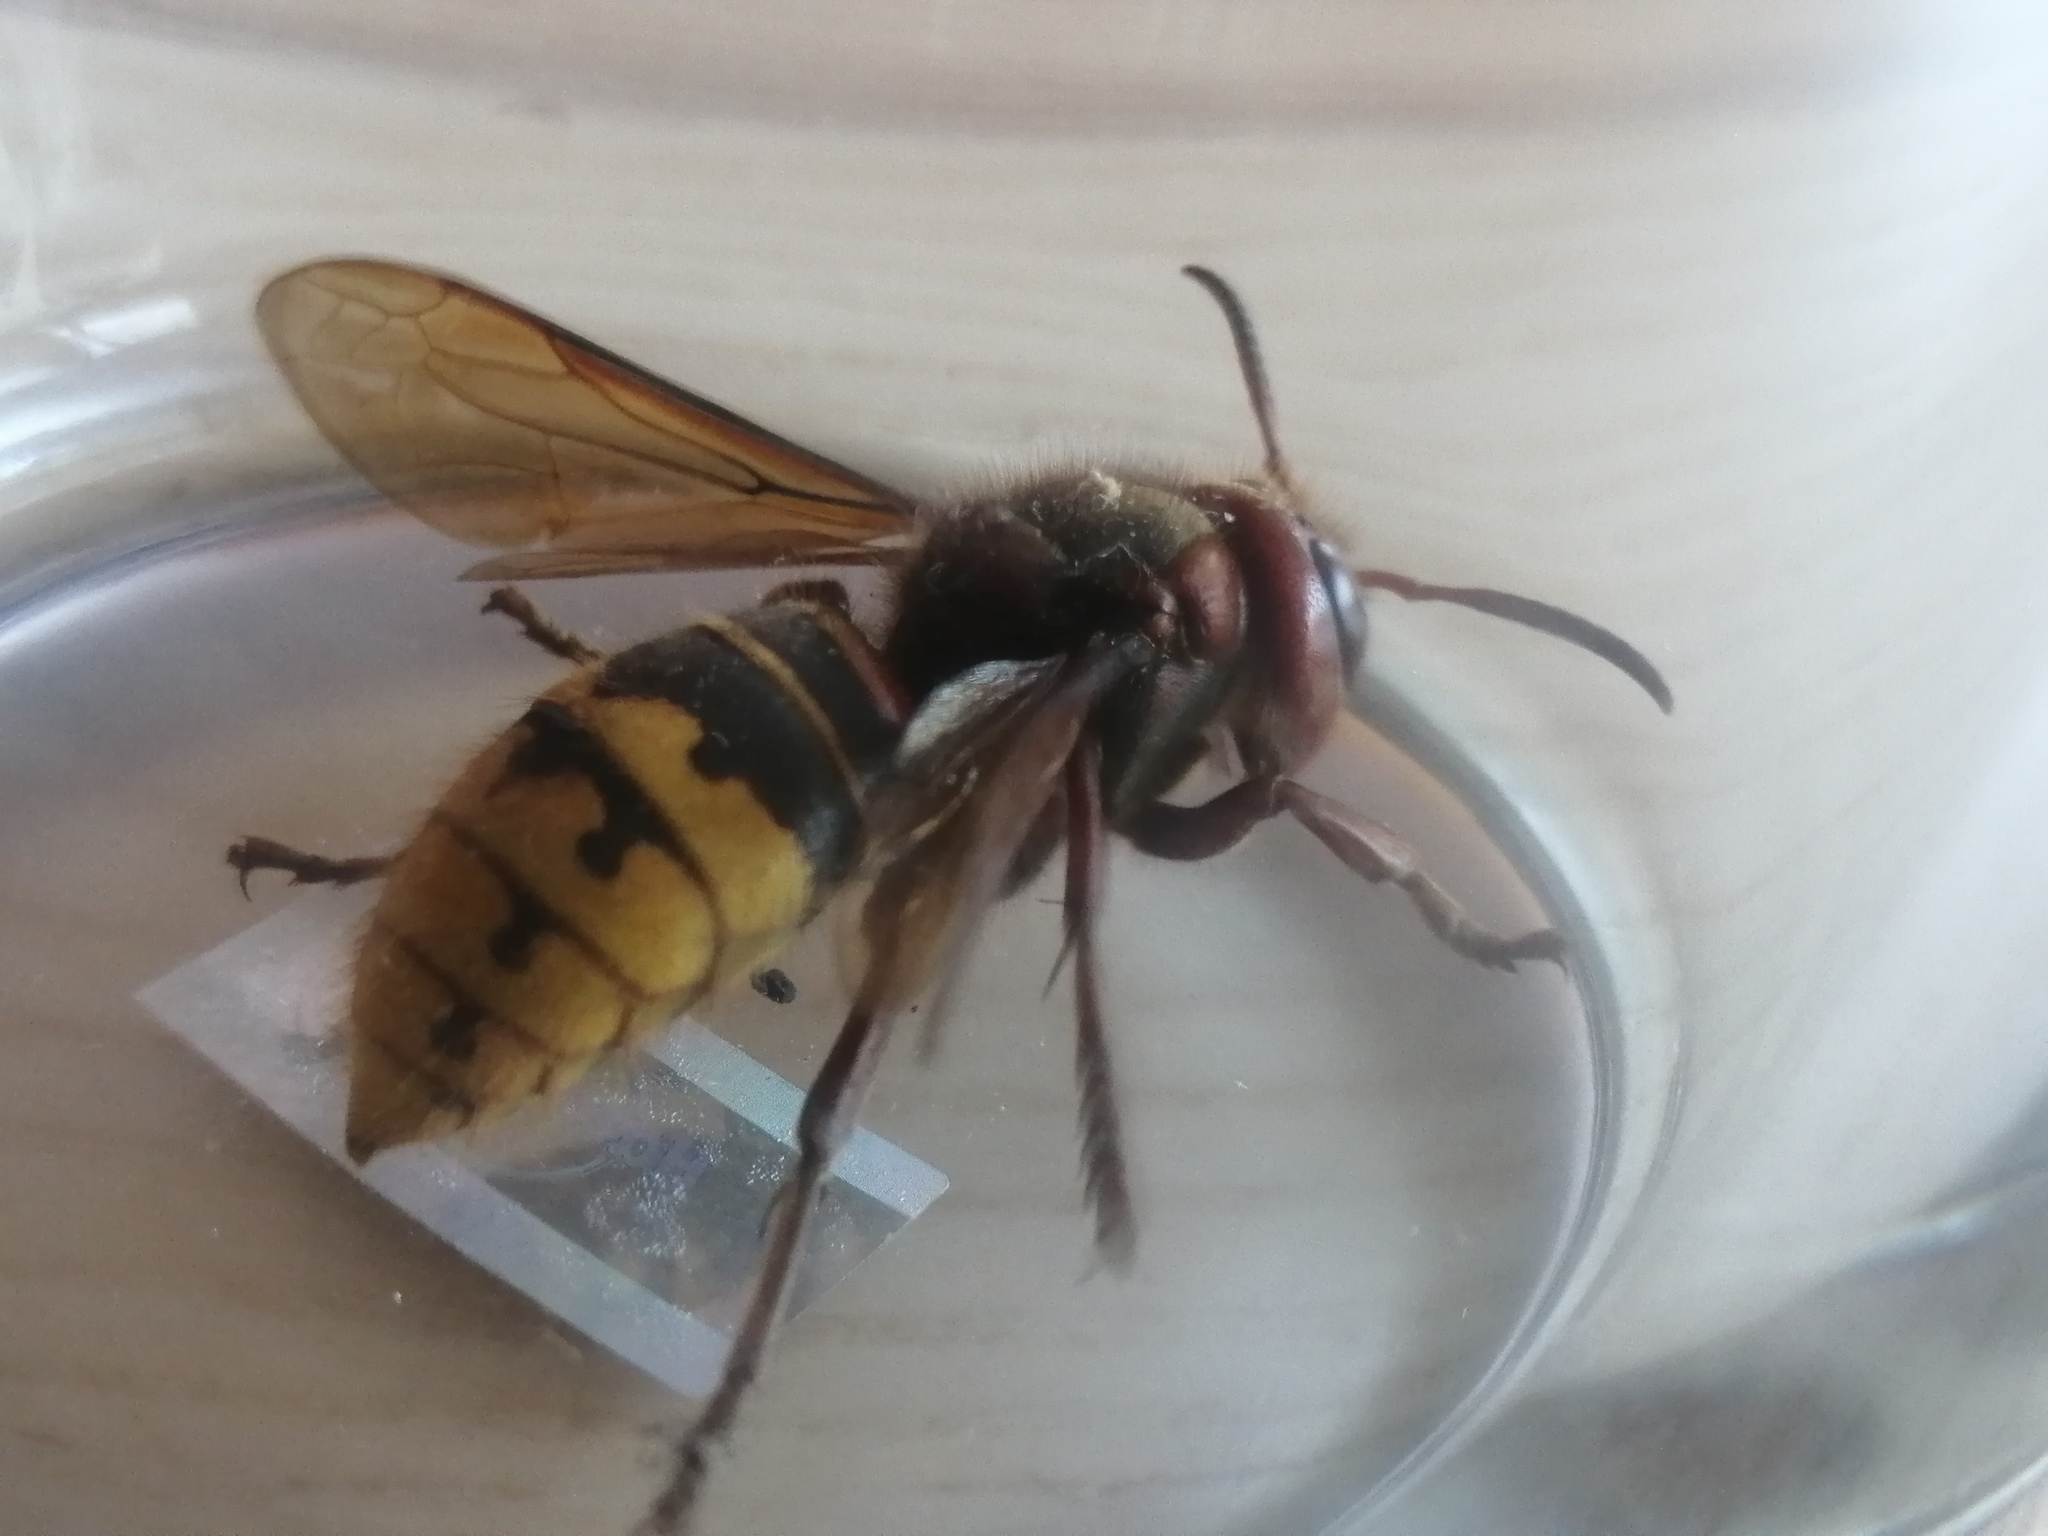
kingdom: Animalia
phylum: Arthropoda
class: Insecta
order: Hymenoptera
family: Vespidae
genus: Vespa
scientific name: Vespa crabro
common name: Hornet
